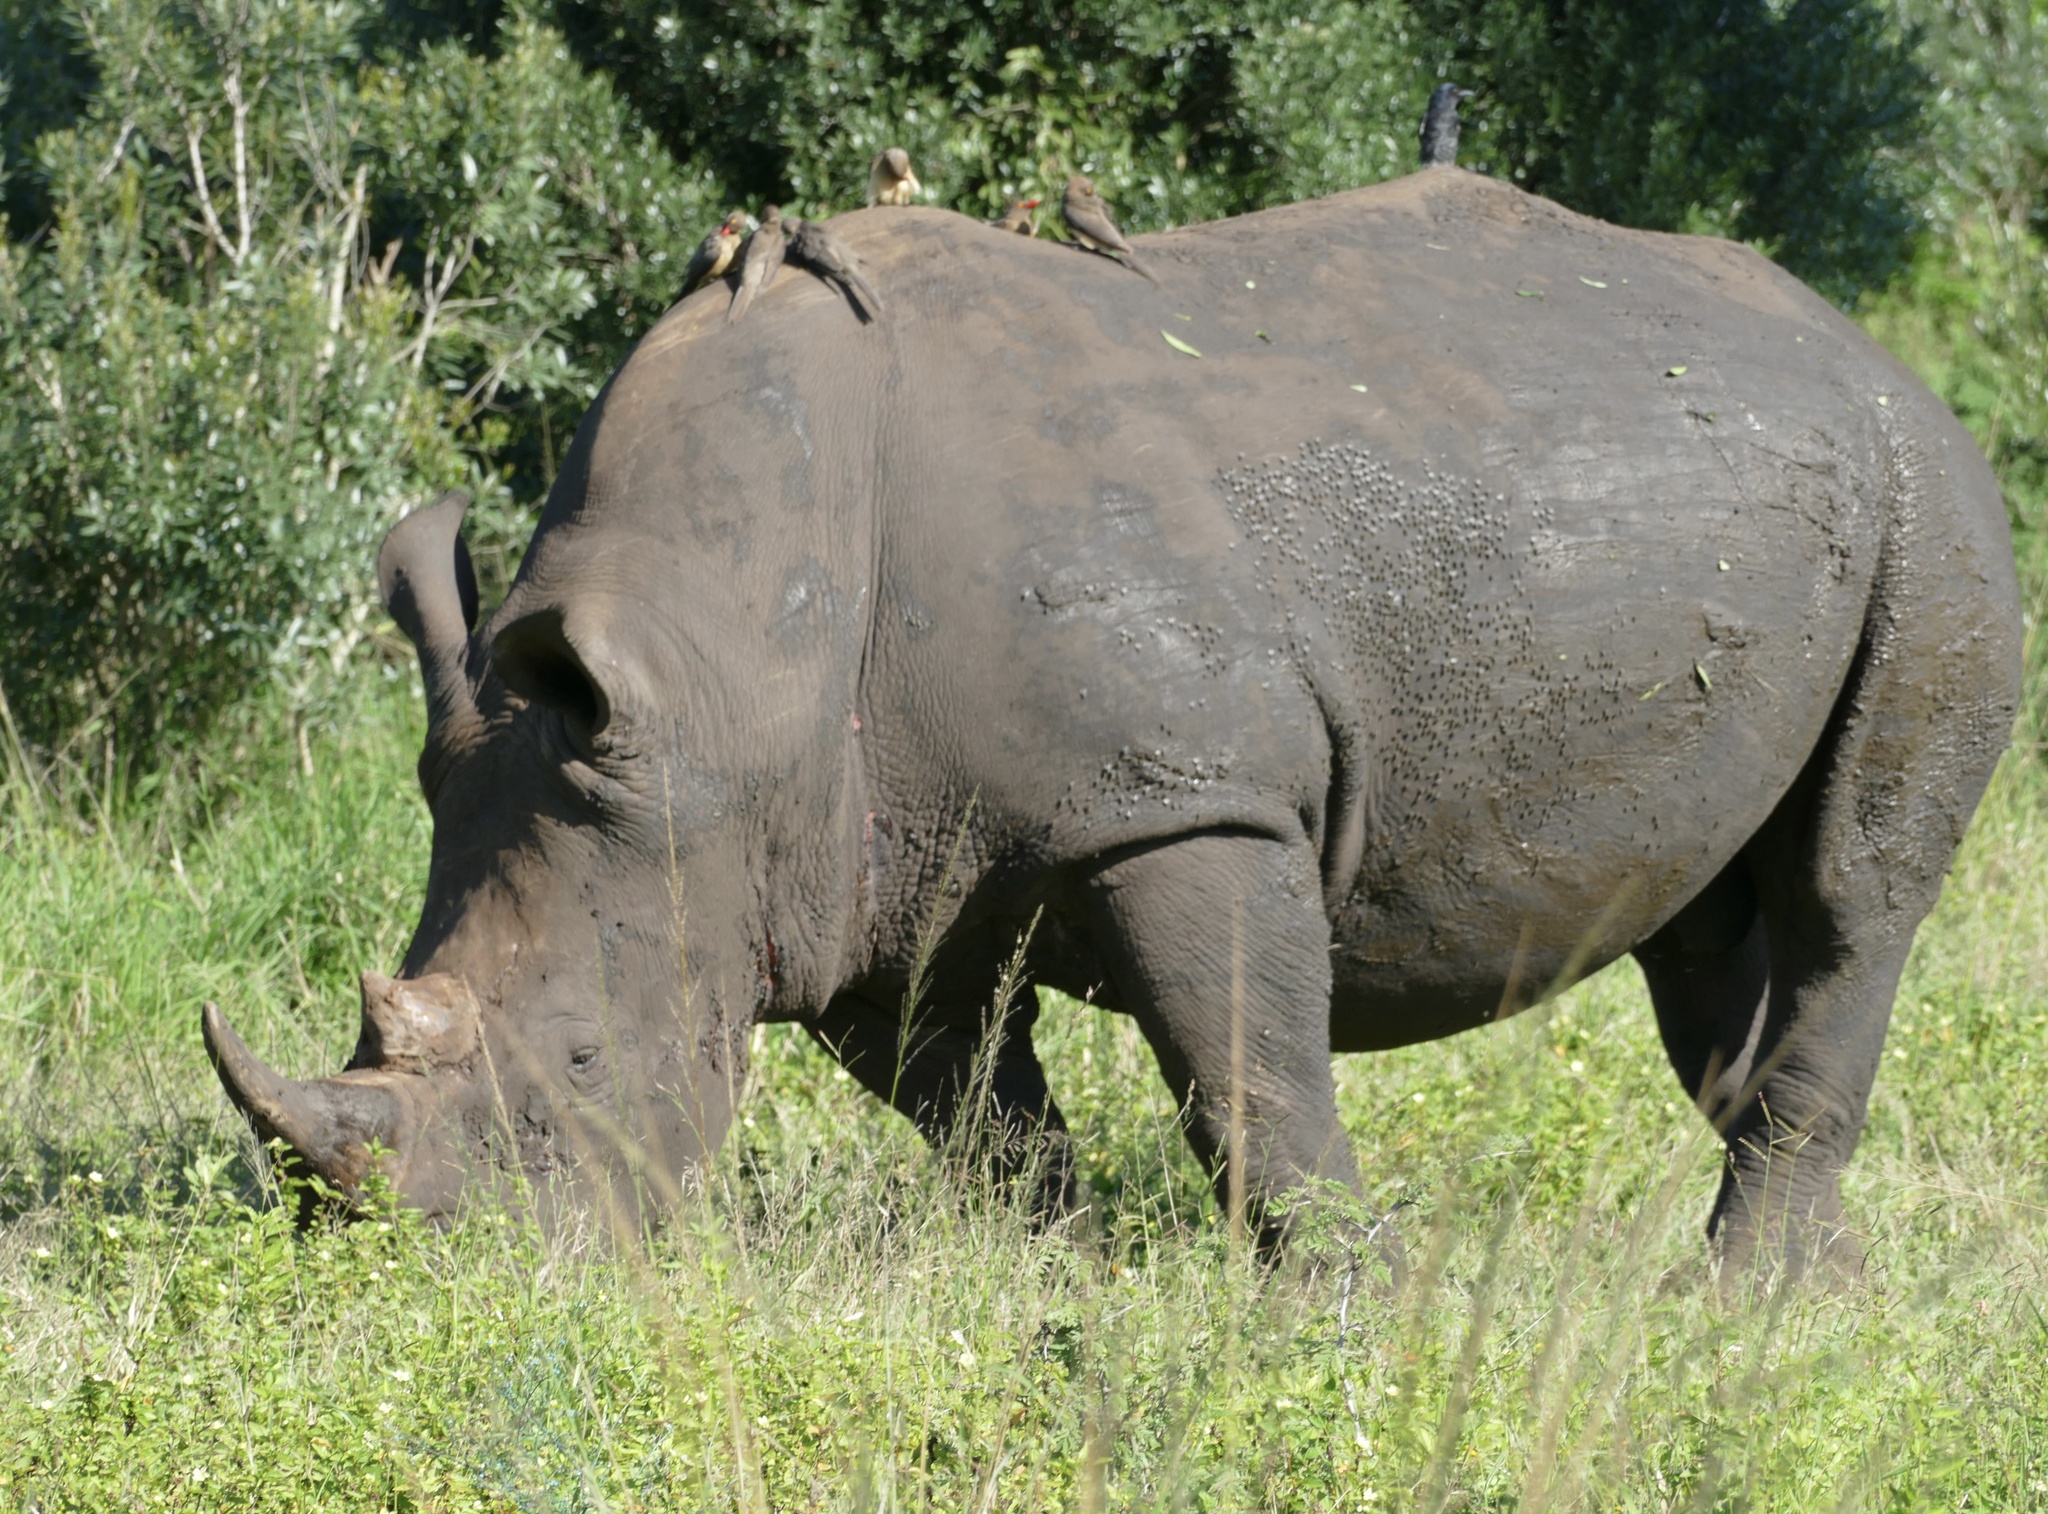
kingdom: Animalia
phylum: Chordata
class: Mammalia
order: Perissodactyla
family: Rhinocerotidae
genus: Ceratotherium
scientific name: Ceratotherium simum
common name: White rhinoceros
